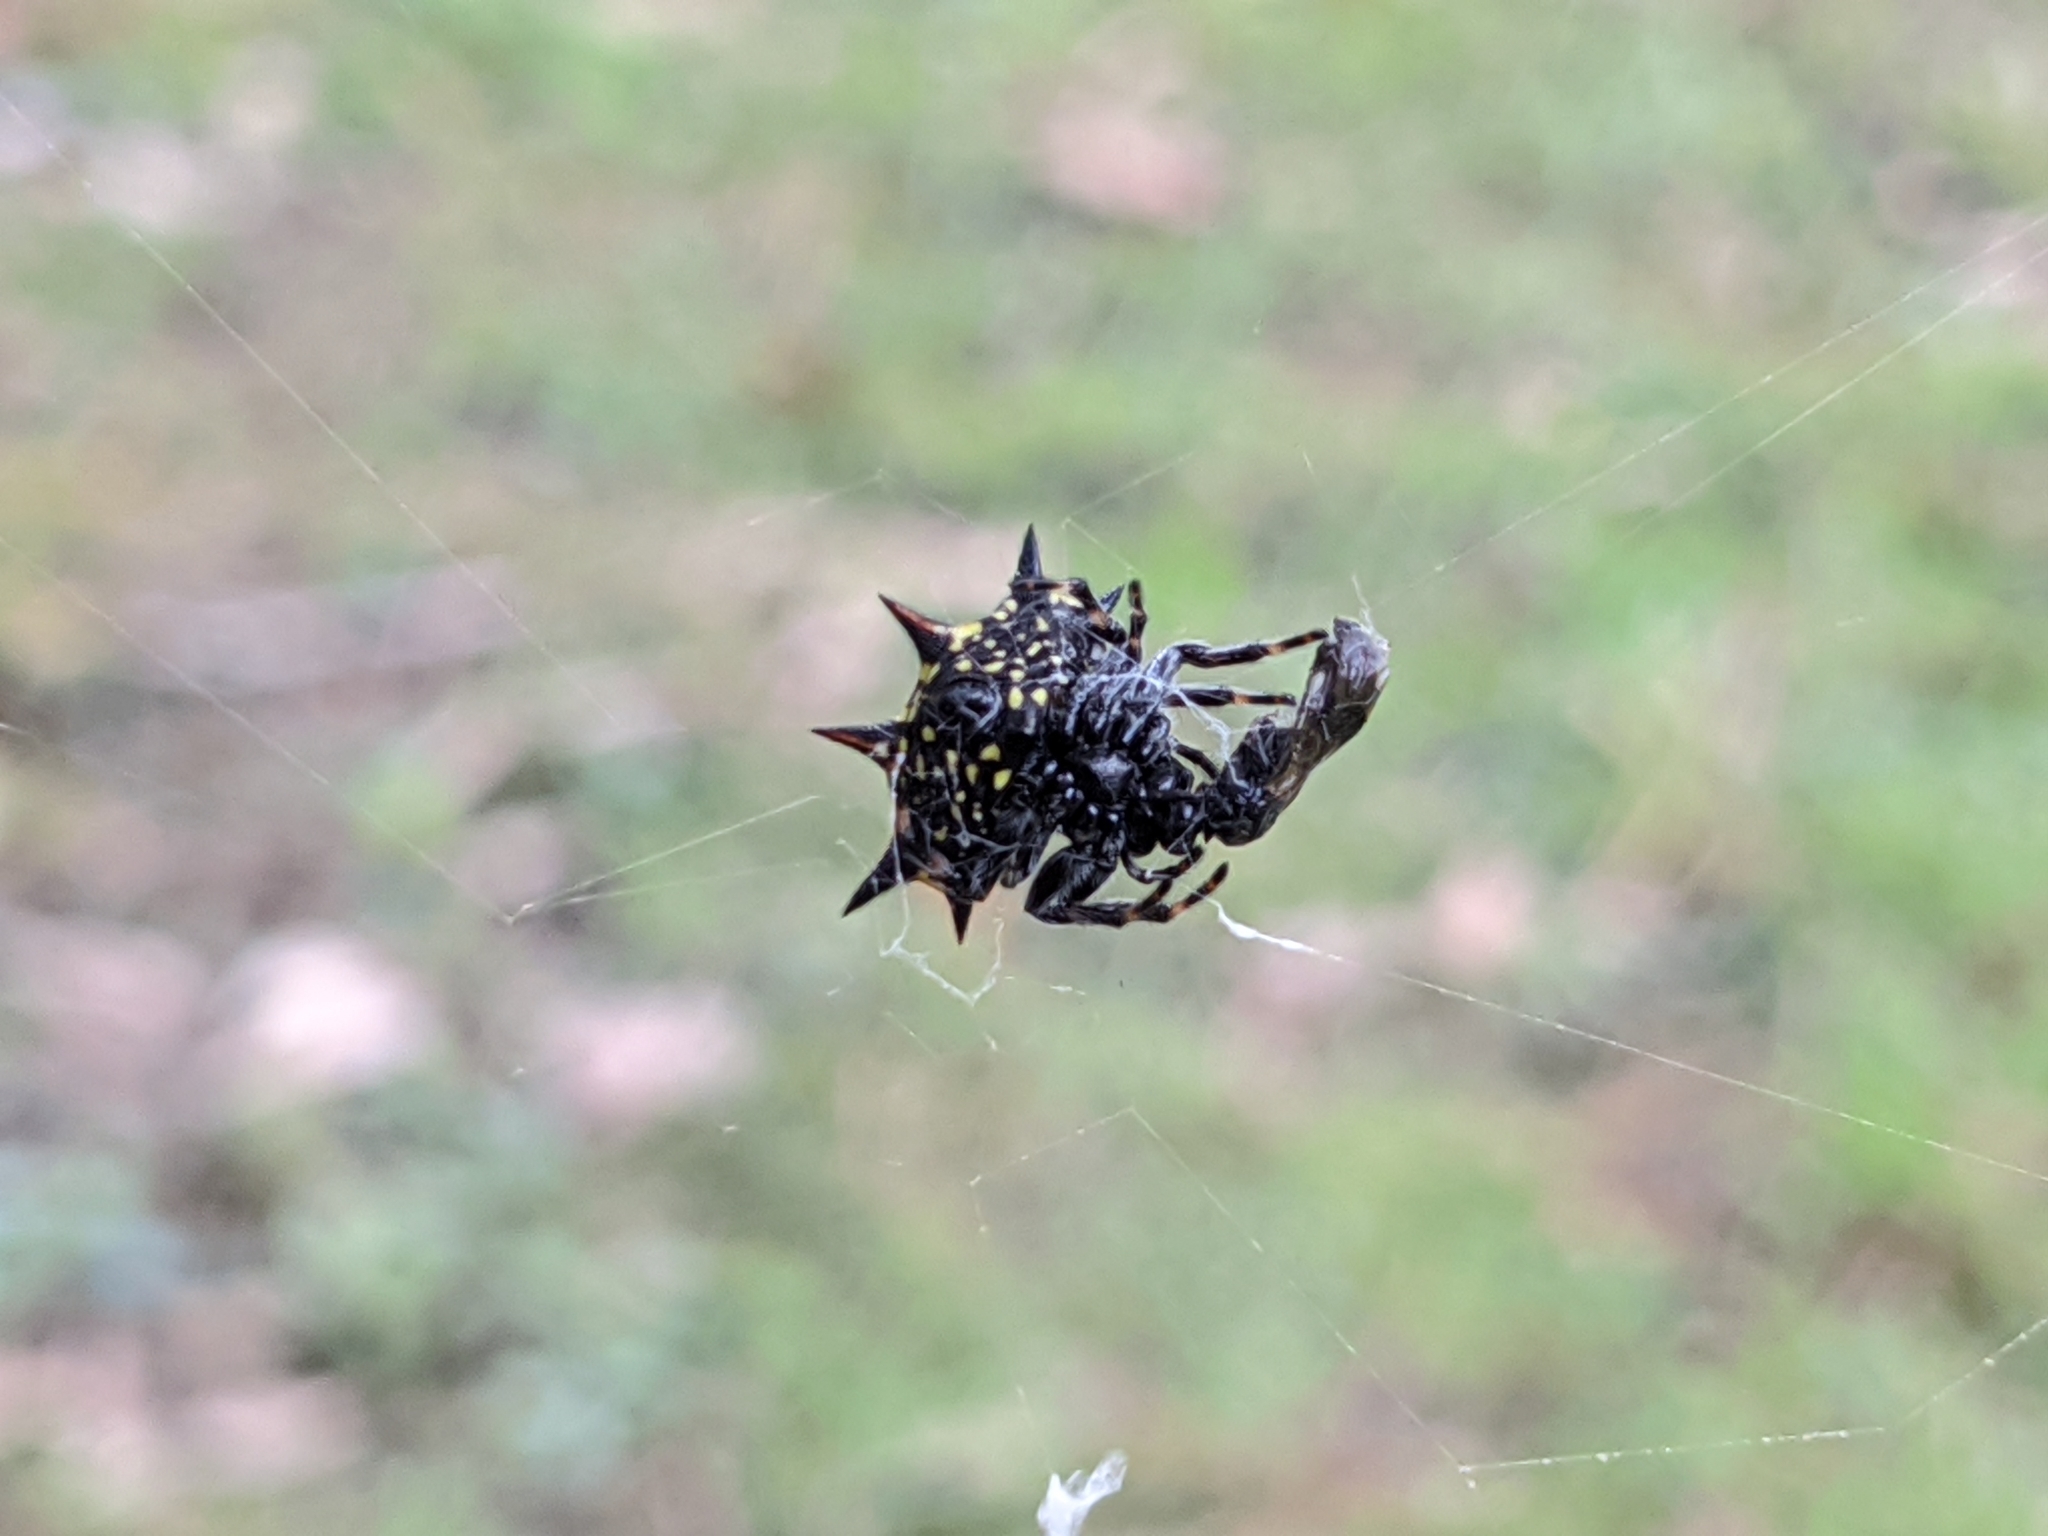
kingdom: Animalia
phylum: Arthropoda
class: Arachnida
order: Araneae
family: Araneidae
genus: Gasteracantha
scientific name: Gasteracantha cancriformis
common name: Orb weavers
